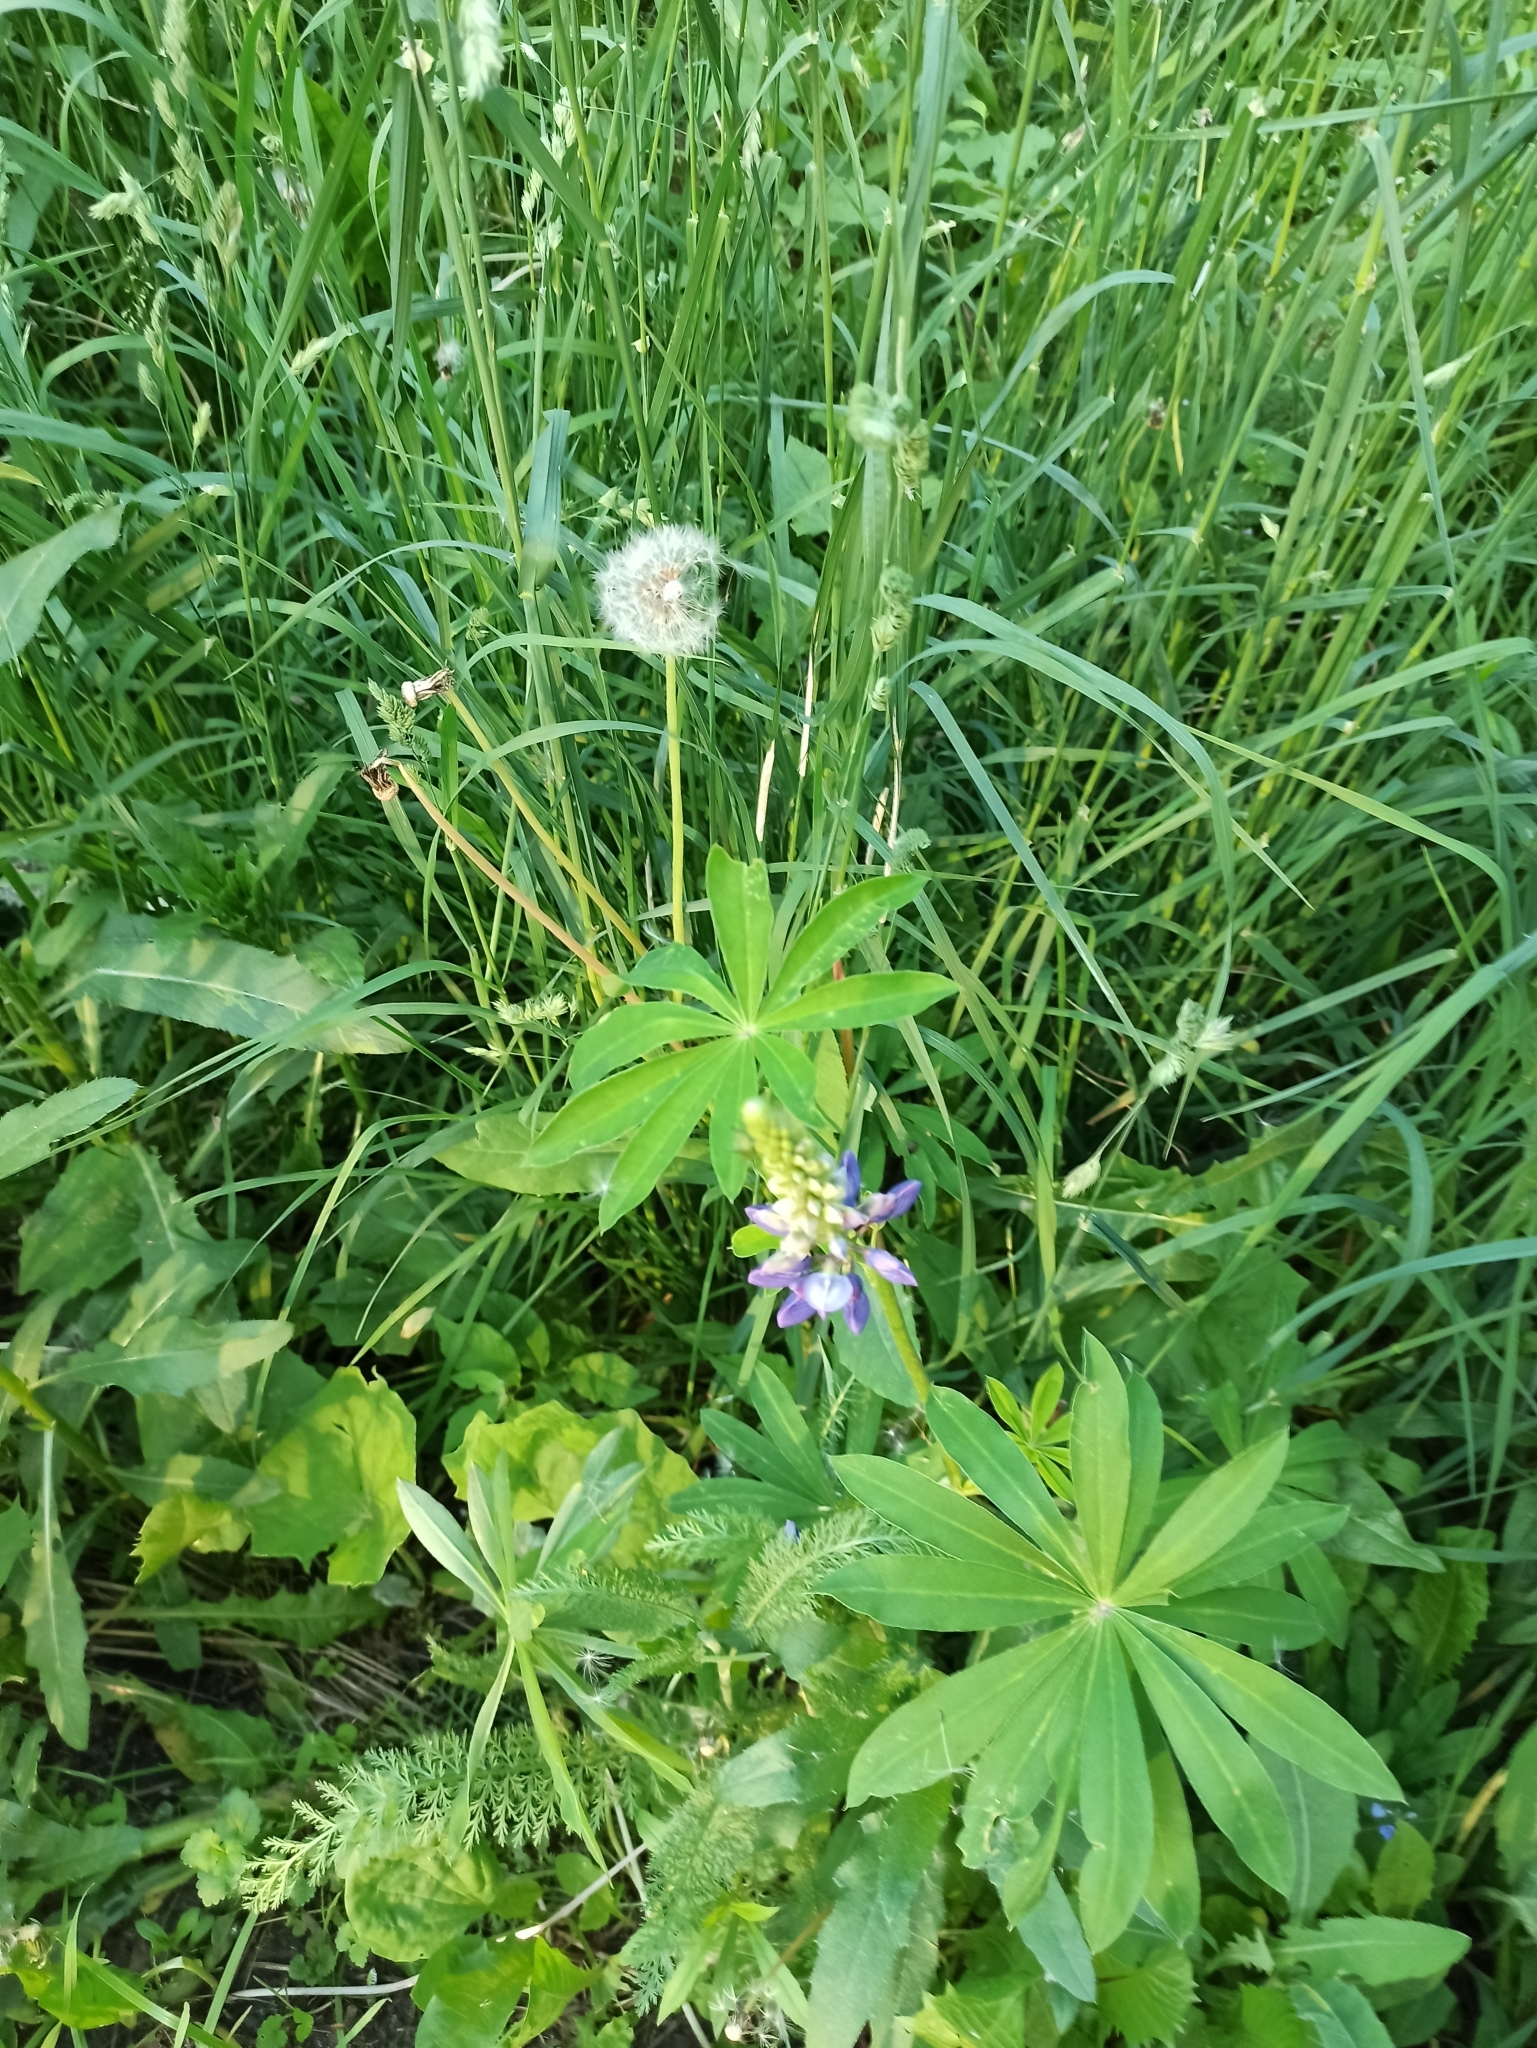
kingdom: Plantae
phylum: Tracheophyta
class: Magnoliopsida
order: Fabales
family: Fabaceae
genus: Lupinus
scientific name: Lupinus polyphyllus
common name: Garden lupin
